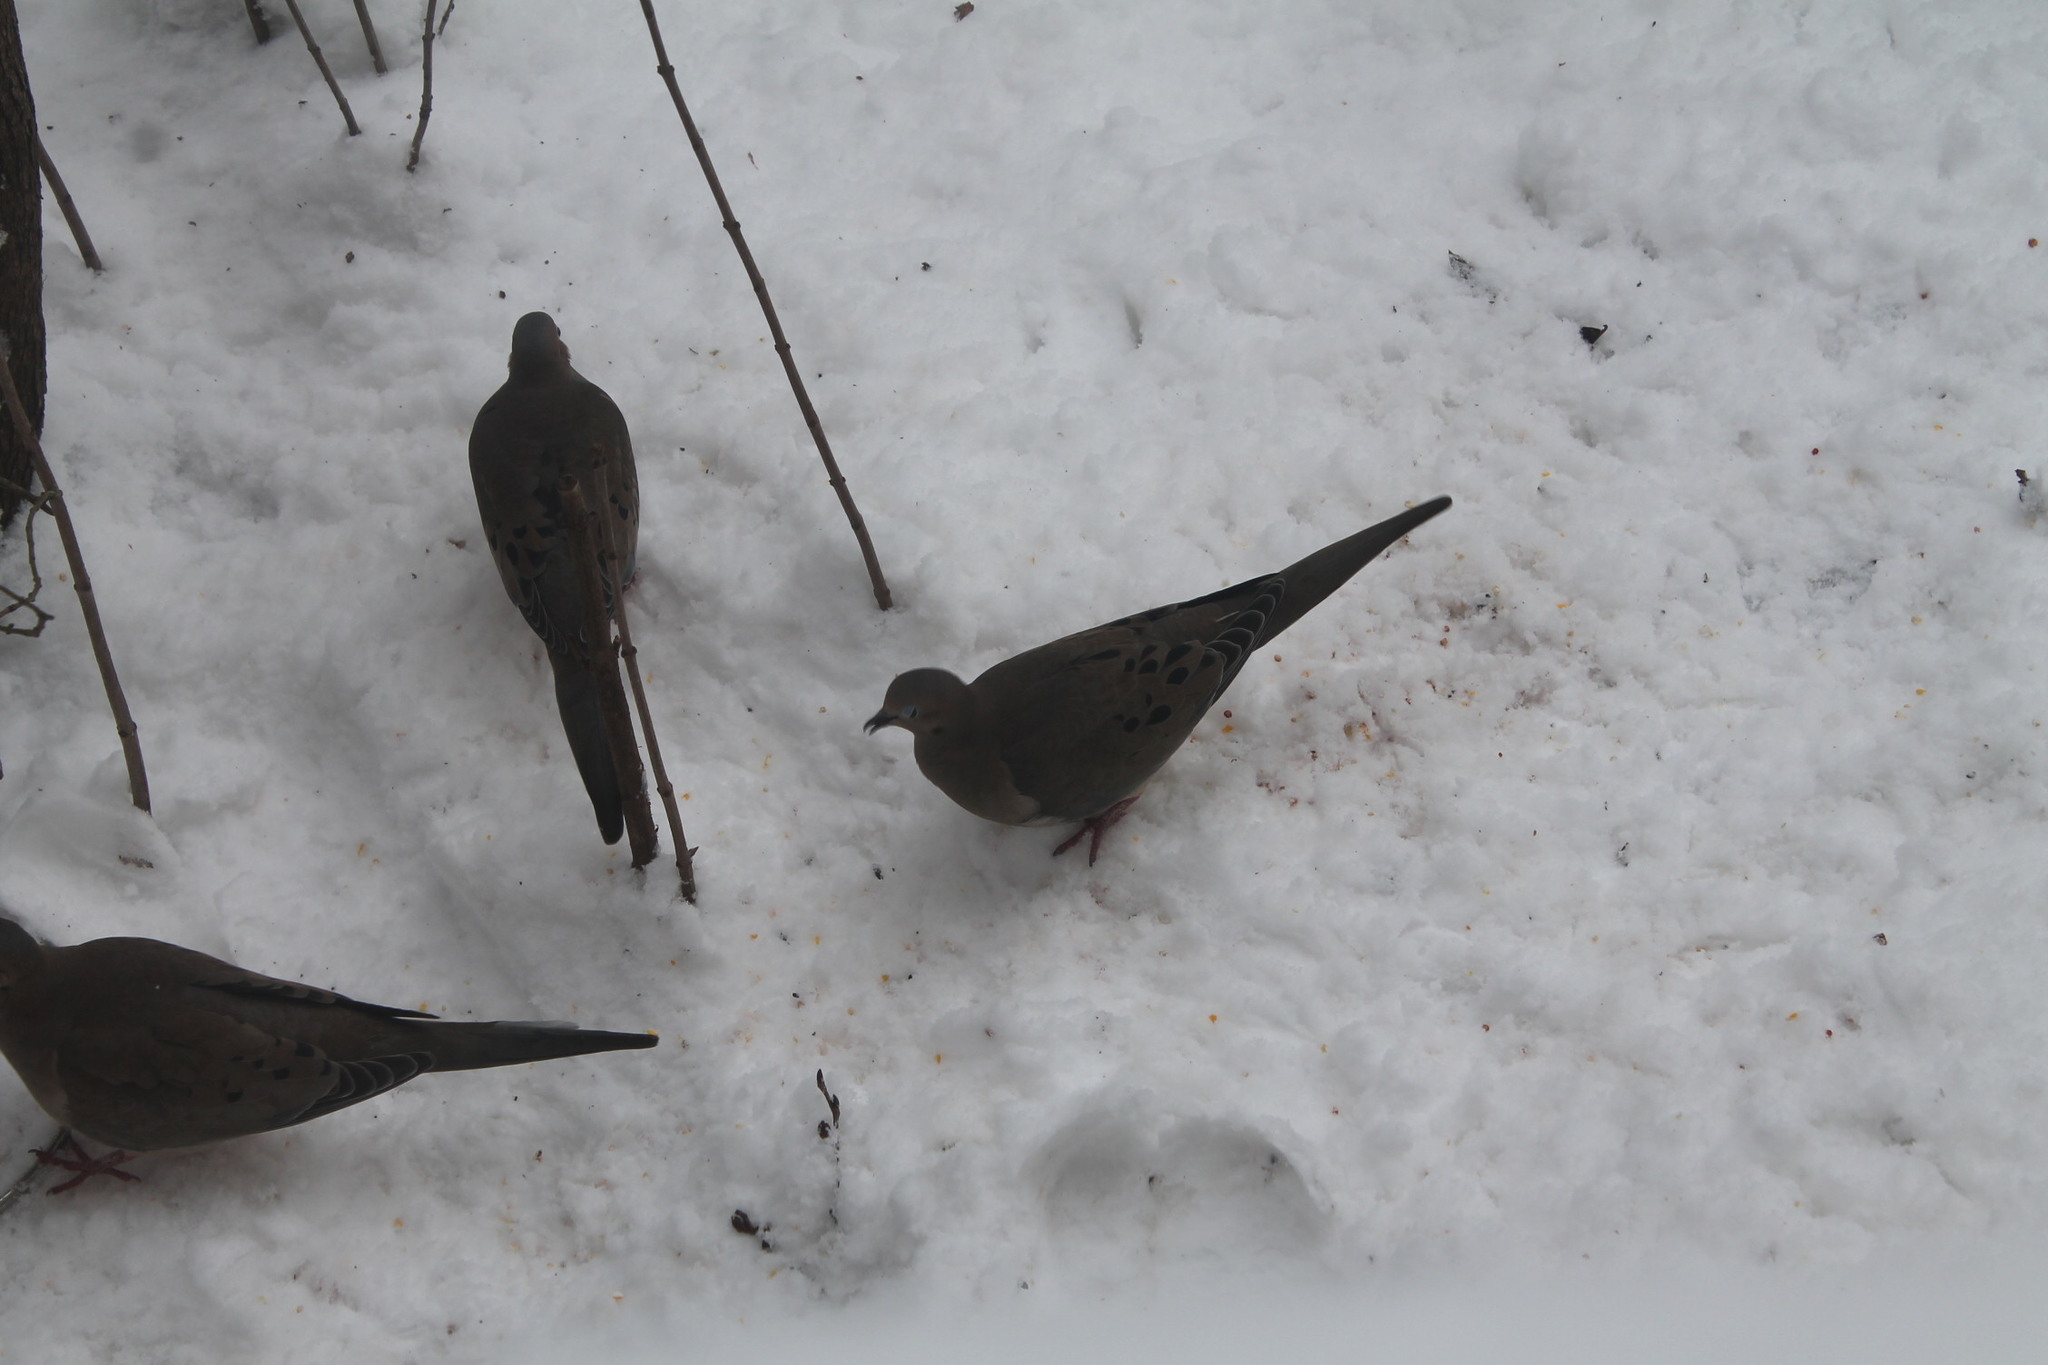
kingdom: Animalia
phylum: Chordata
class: Aves
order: Columbiformes
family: Columbidae
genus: Zenaida
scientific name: Zenaida macroura
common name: Mourning dove
